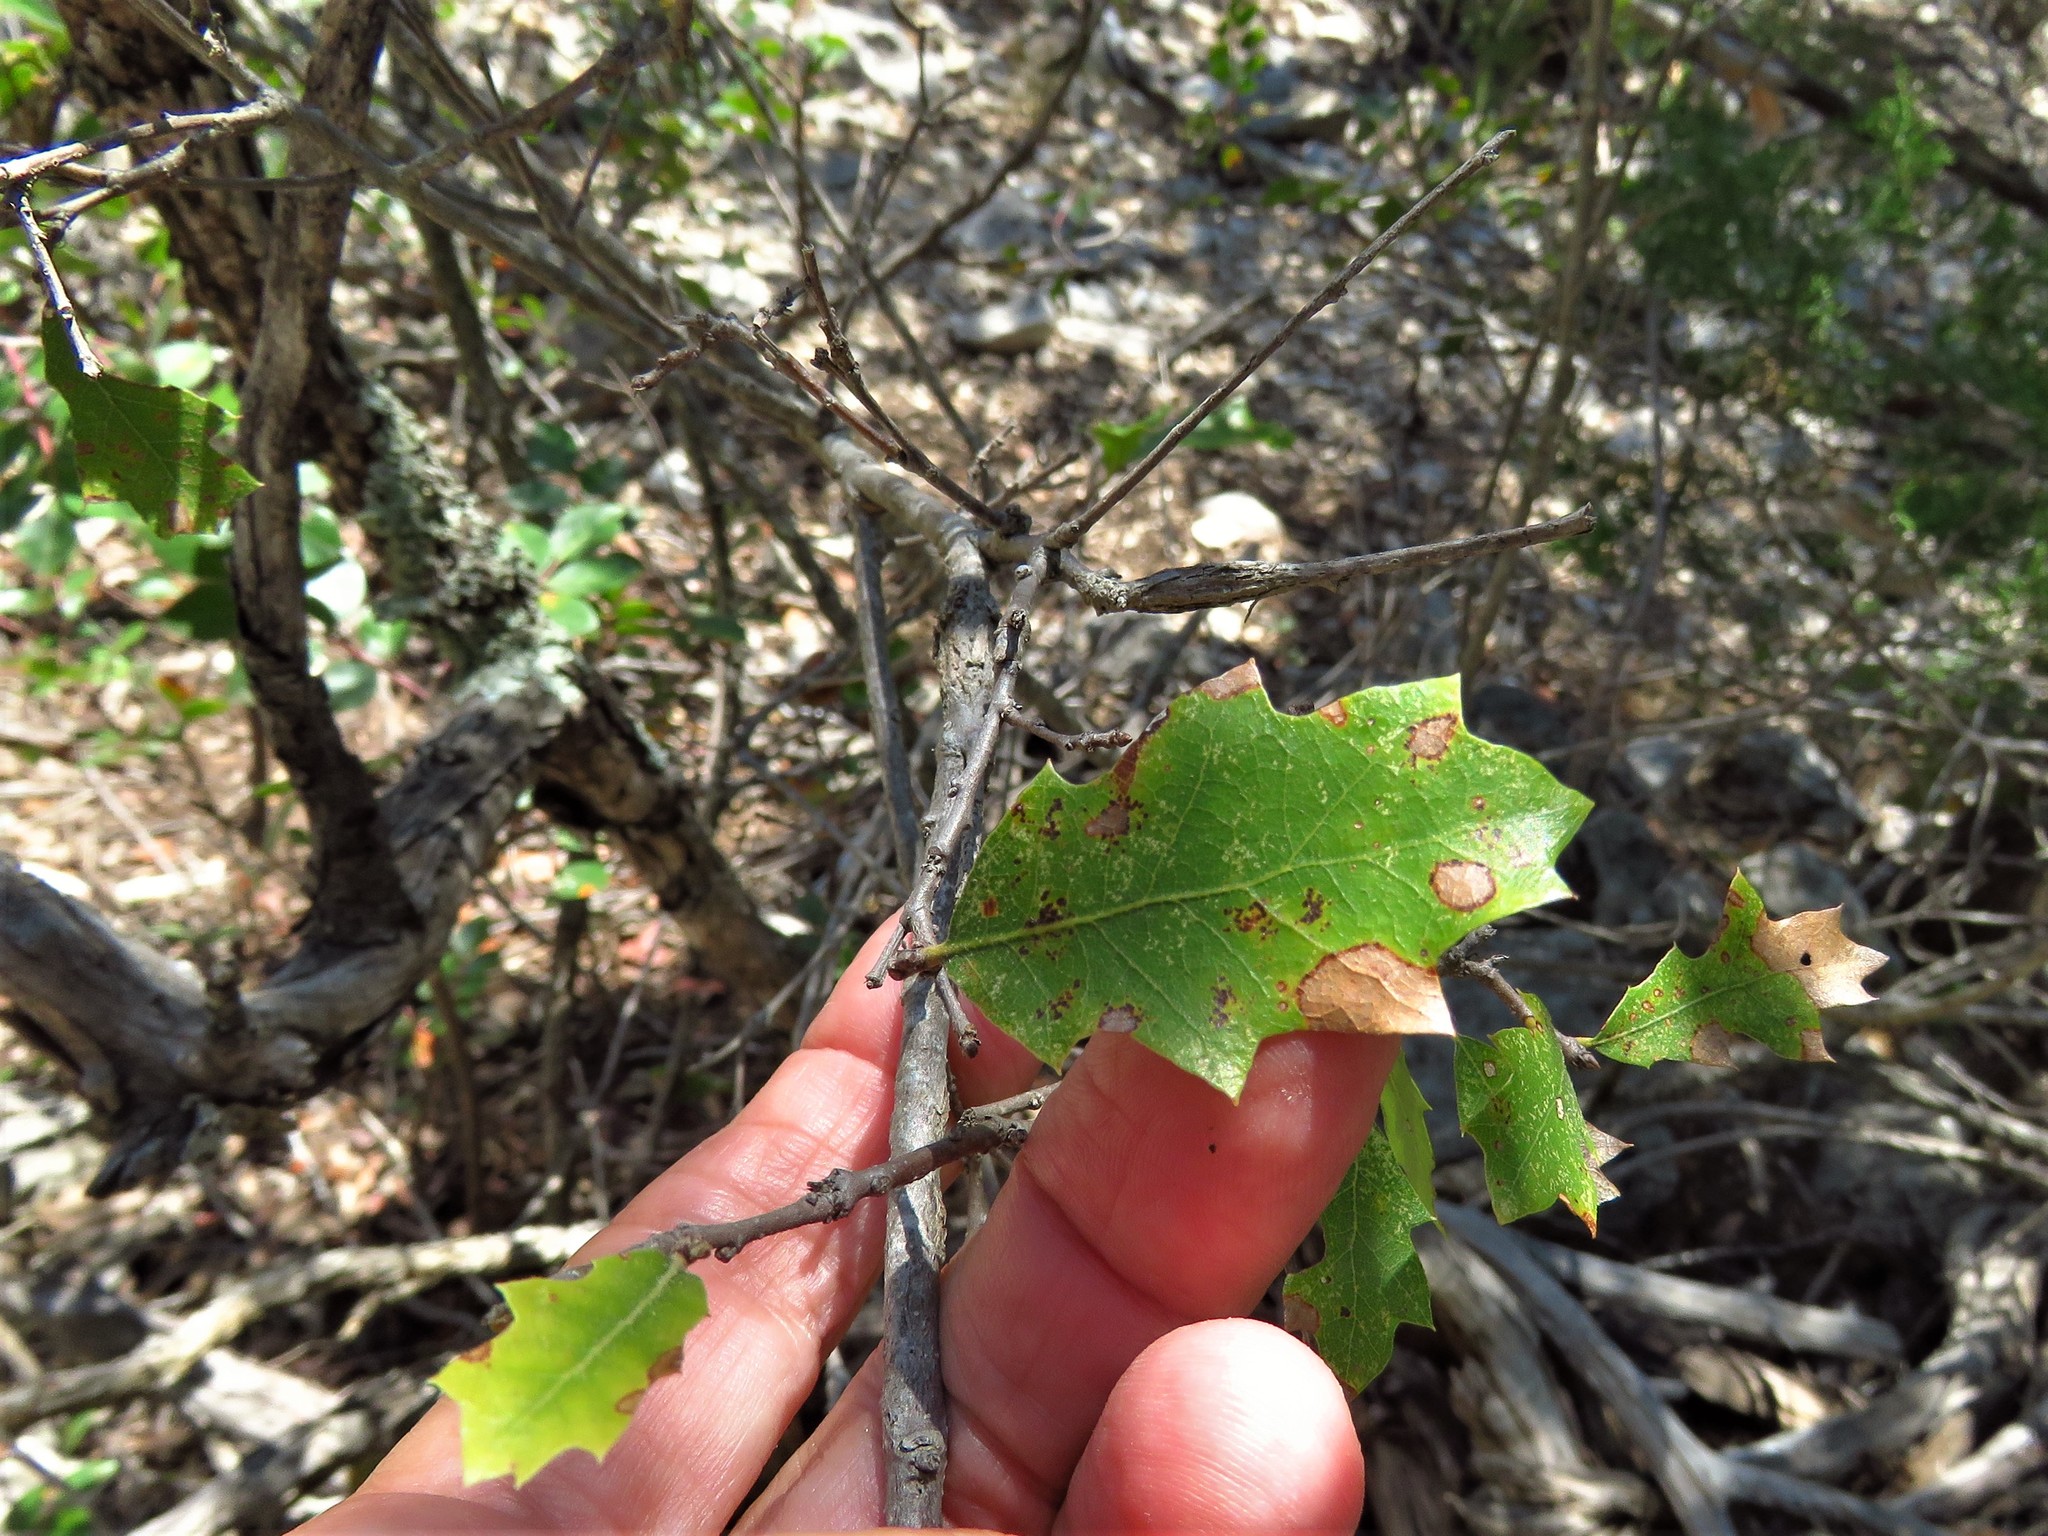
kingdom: Plantae
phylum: Tracheophyta
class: Magnoliopsida
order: Fagales
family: Fagaceae
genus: Quercus
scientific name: Quercus vaseyana
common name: Sandpaper oak
